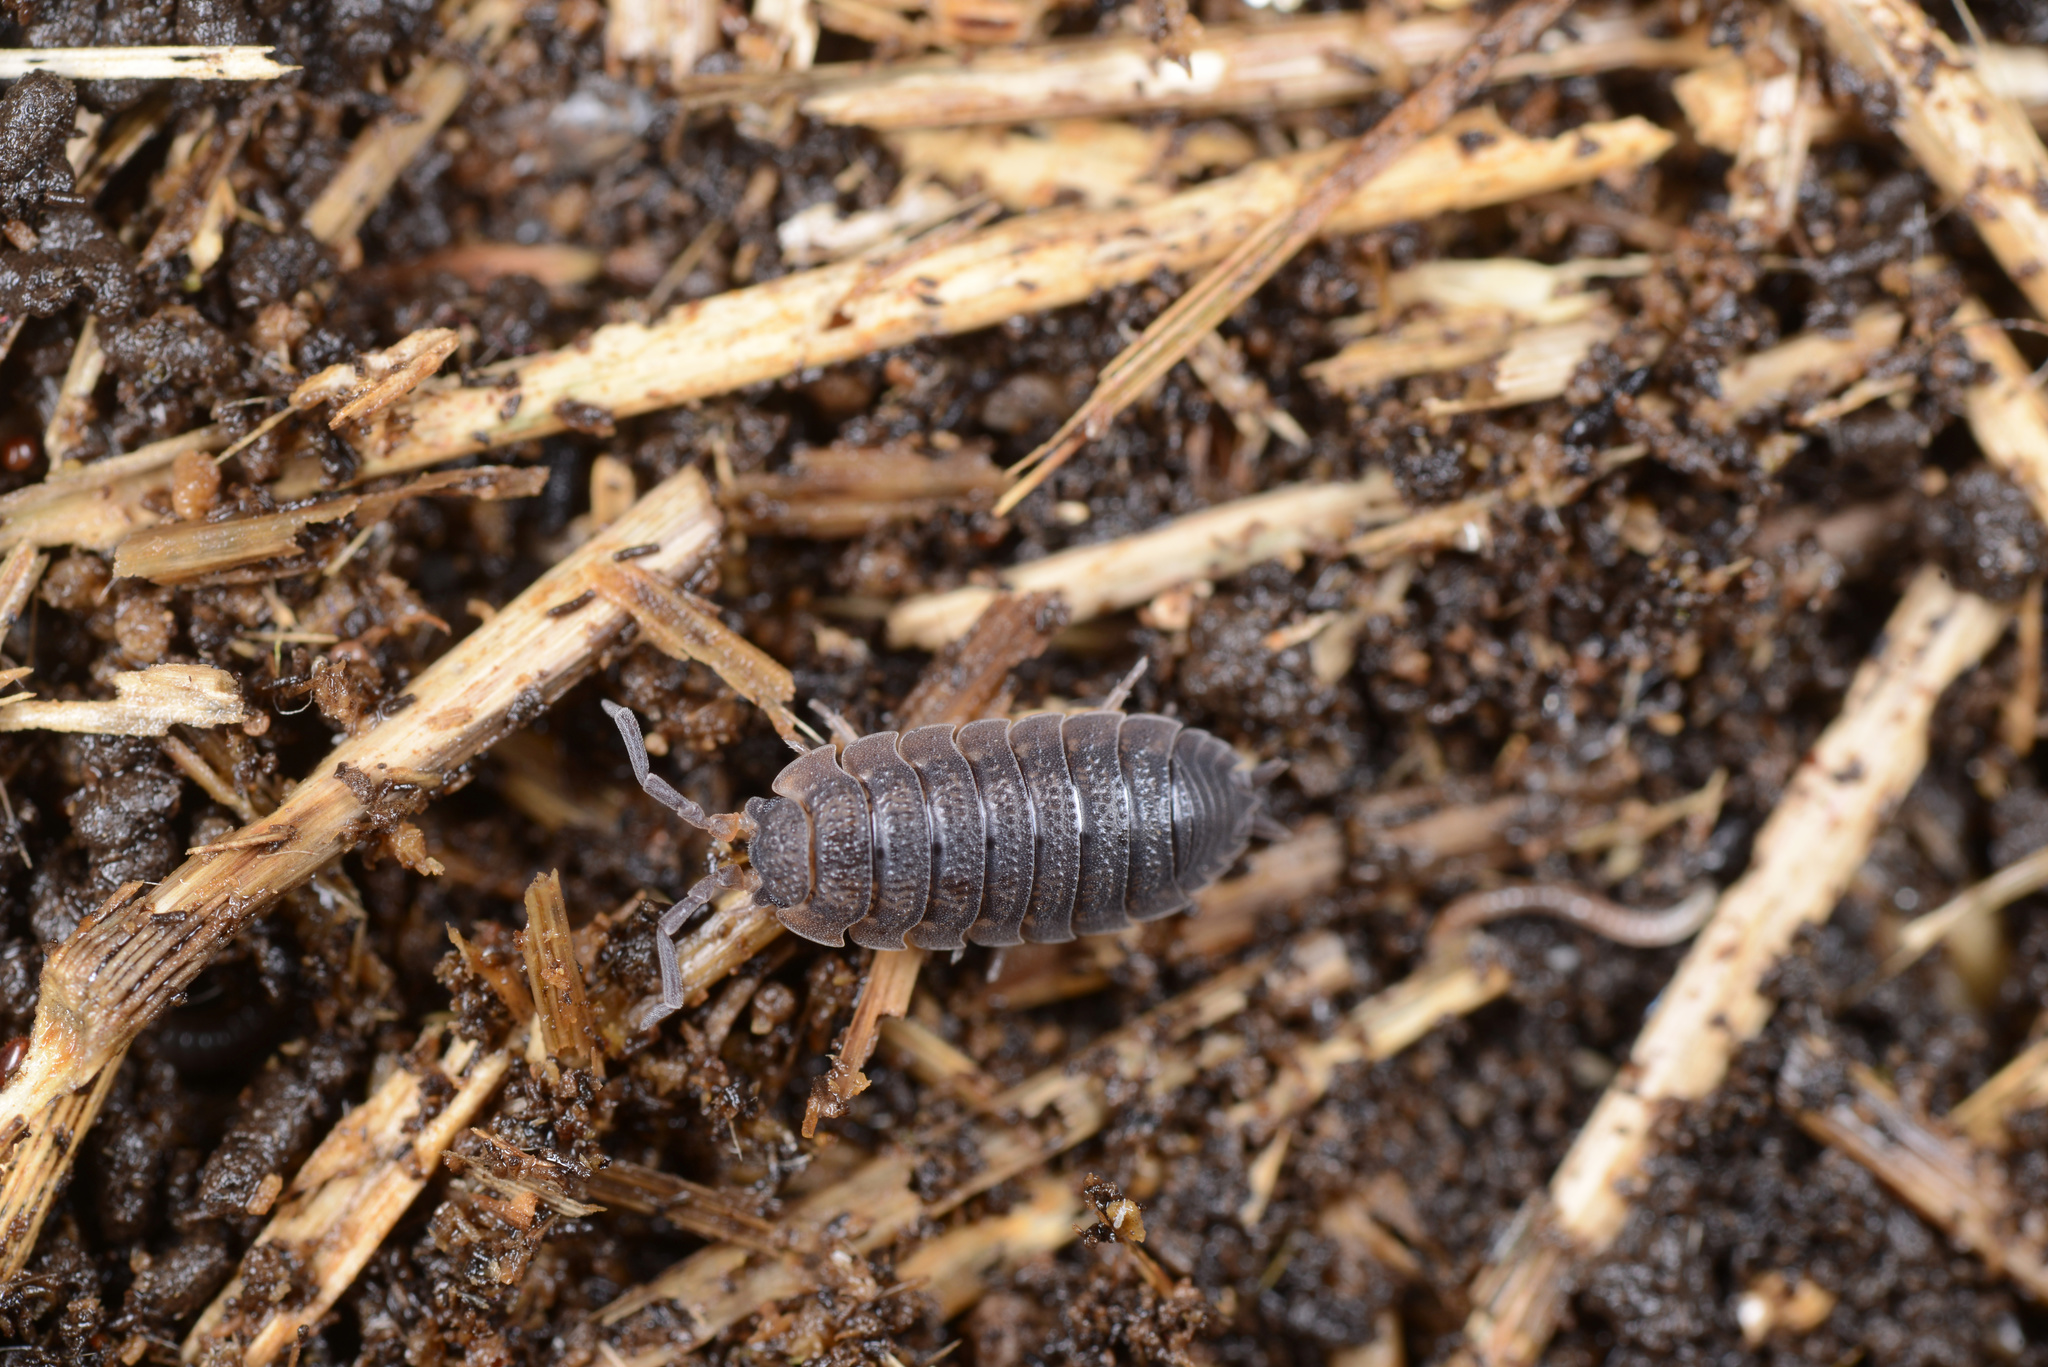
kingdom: Animalia
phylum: Arthropoda
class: Malacostraca
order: Isopoda
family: Porcellionidae
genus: Porcellio
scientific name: Porcellio scaber
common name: Common rough woodlouse
